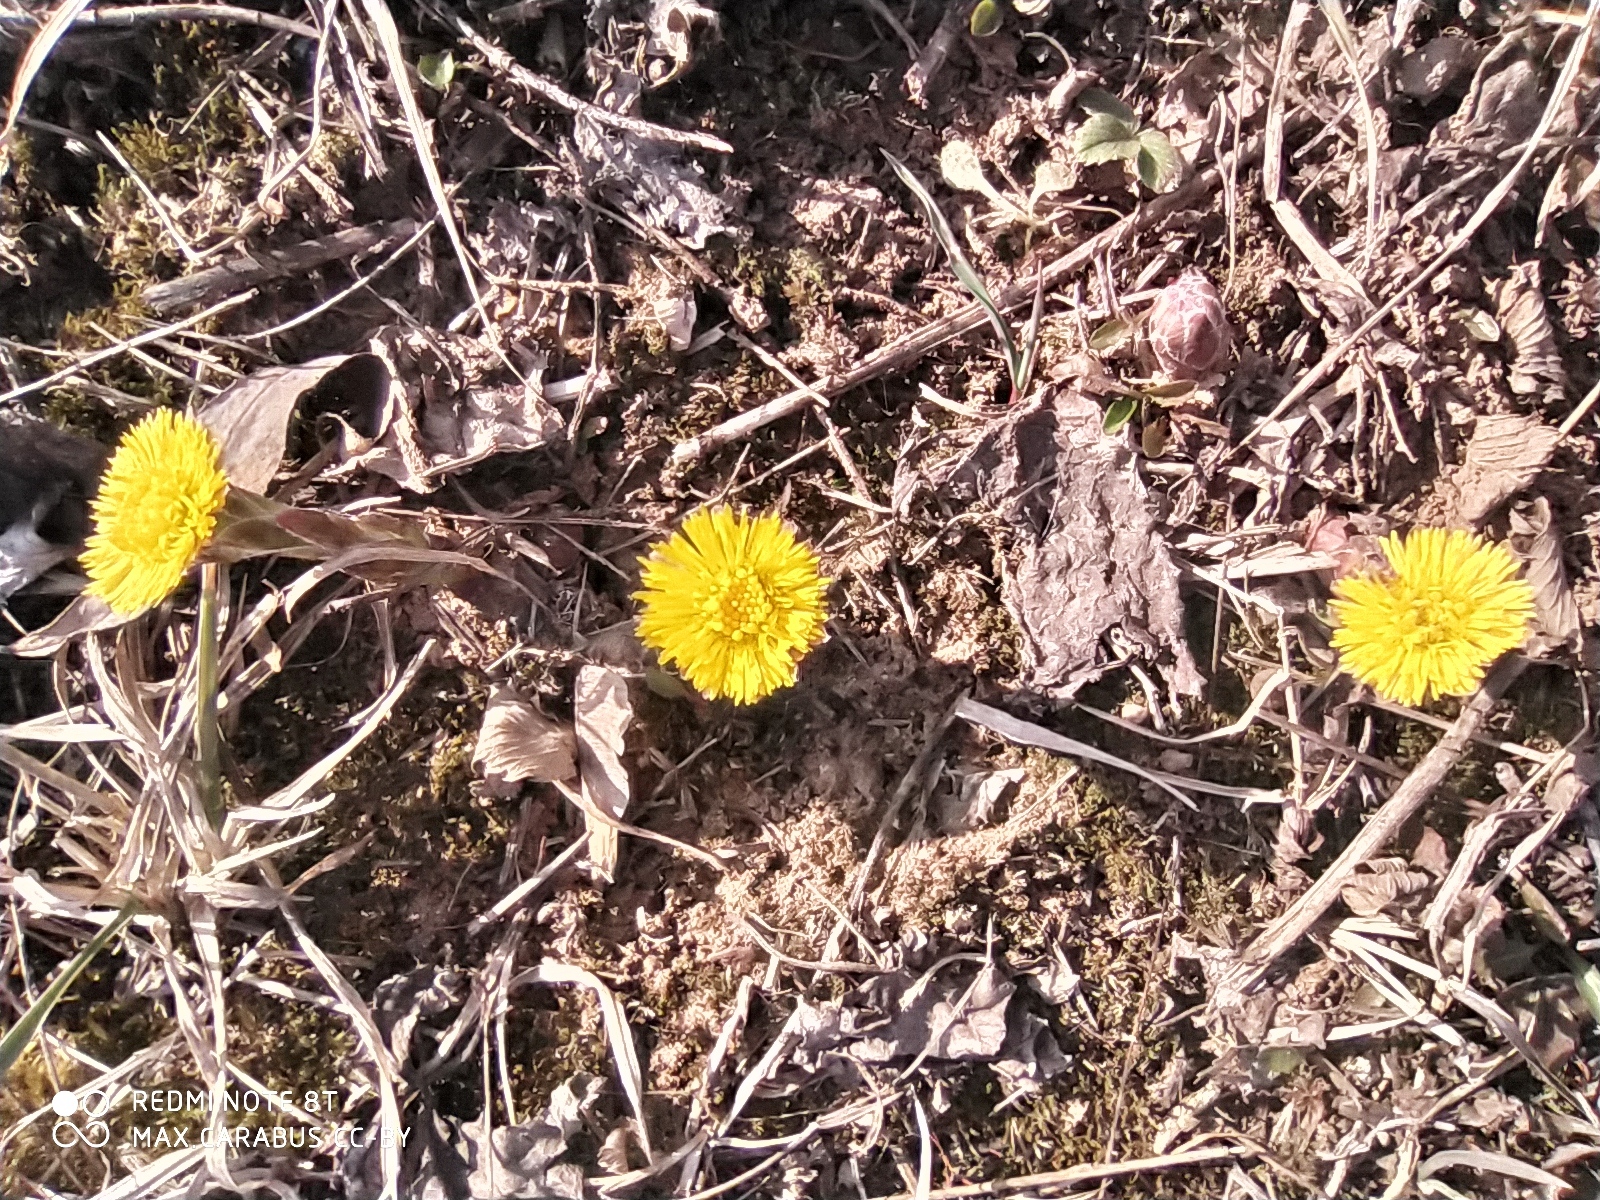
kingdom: Plantae
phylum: Tracheophyta
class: Magnoliopsida
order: Asterales
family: Asteraceae
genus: Tussilago
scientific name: Tussilago farfara
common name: Coltsfoot
